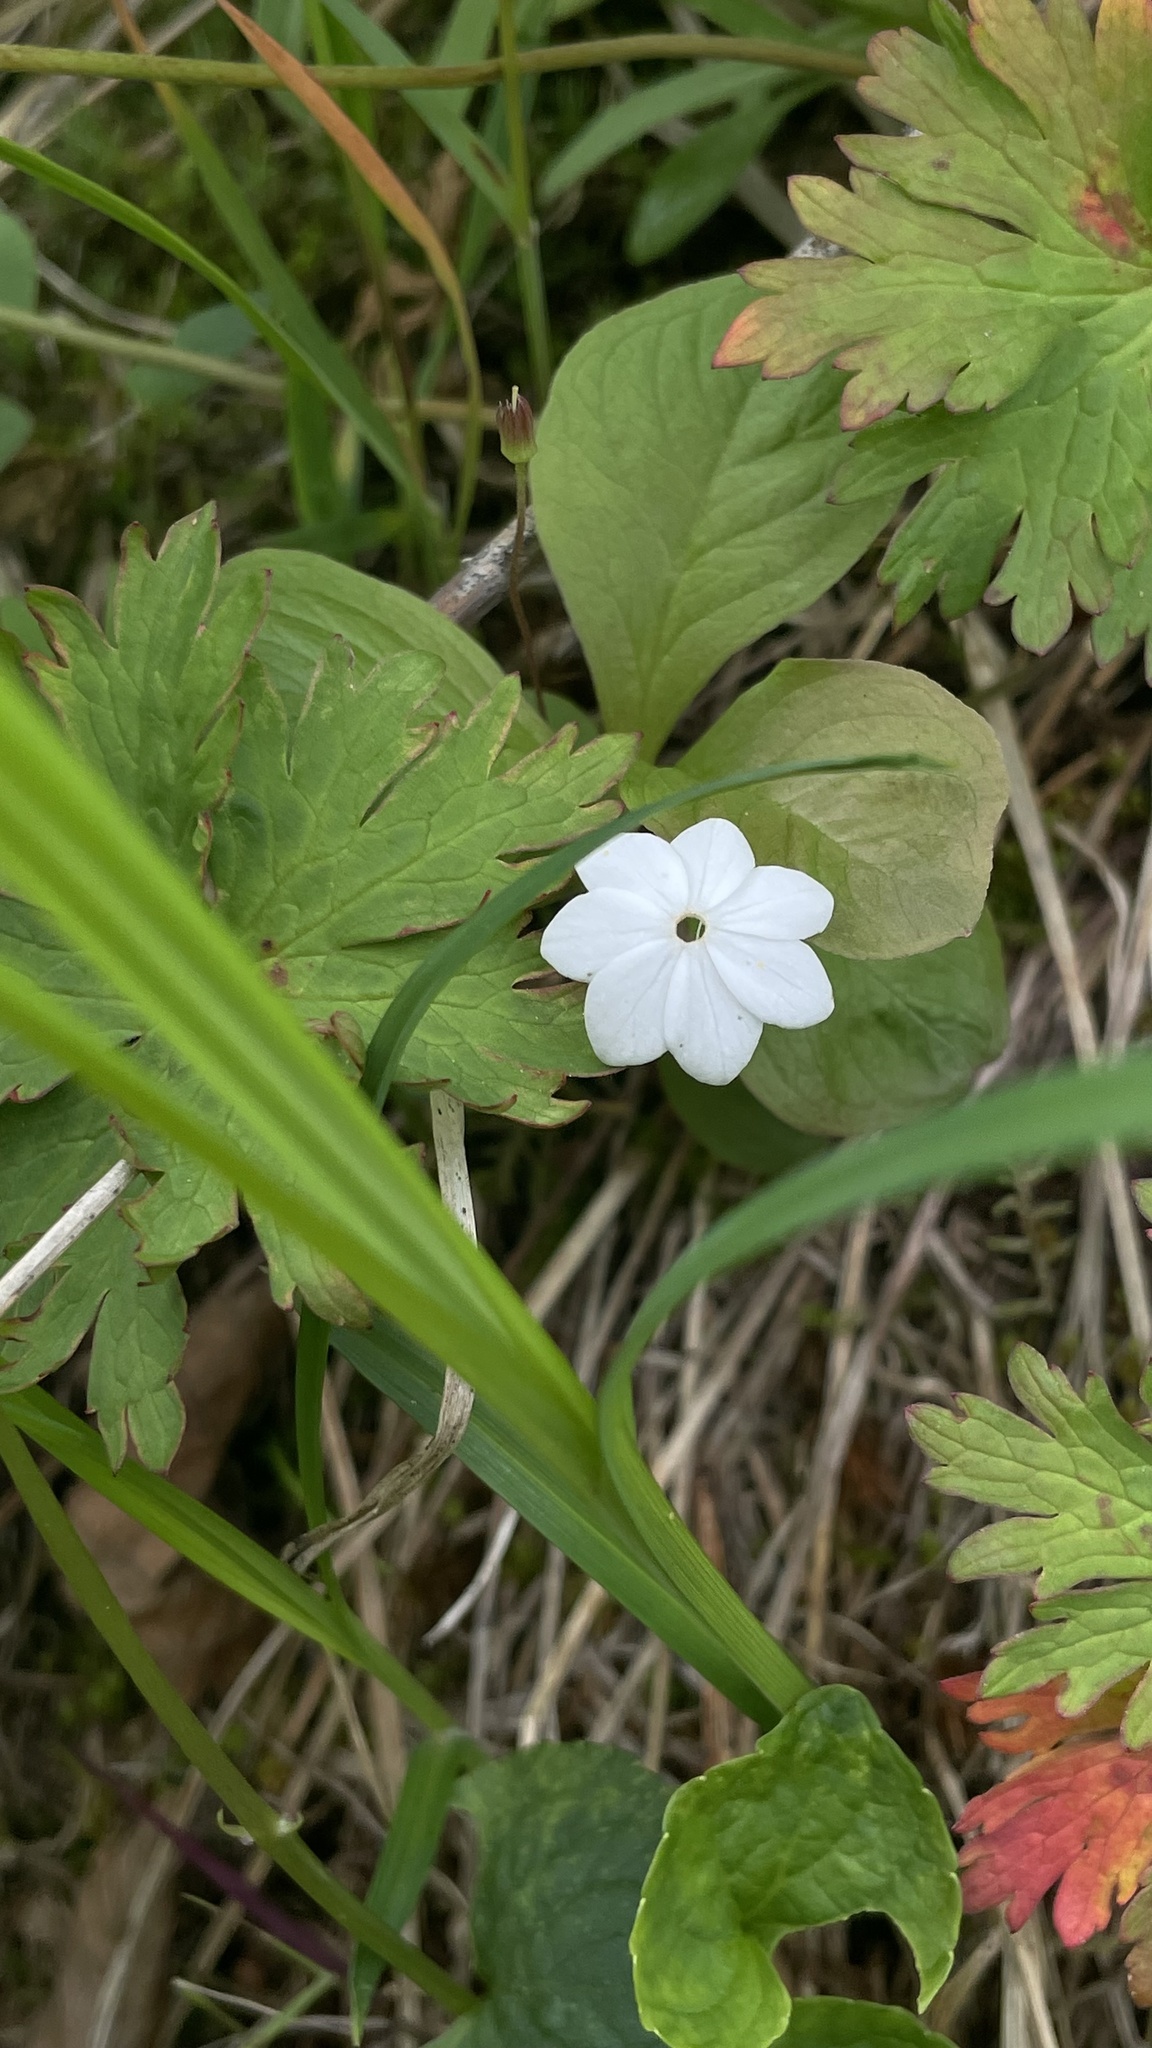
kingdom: Plantae
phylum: Tracheophyta
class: Magnoliopsida
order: Ericales
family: Primulaceae
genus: Lysimachia
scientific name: Lysimachia europaea
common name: Arctic starflower
